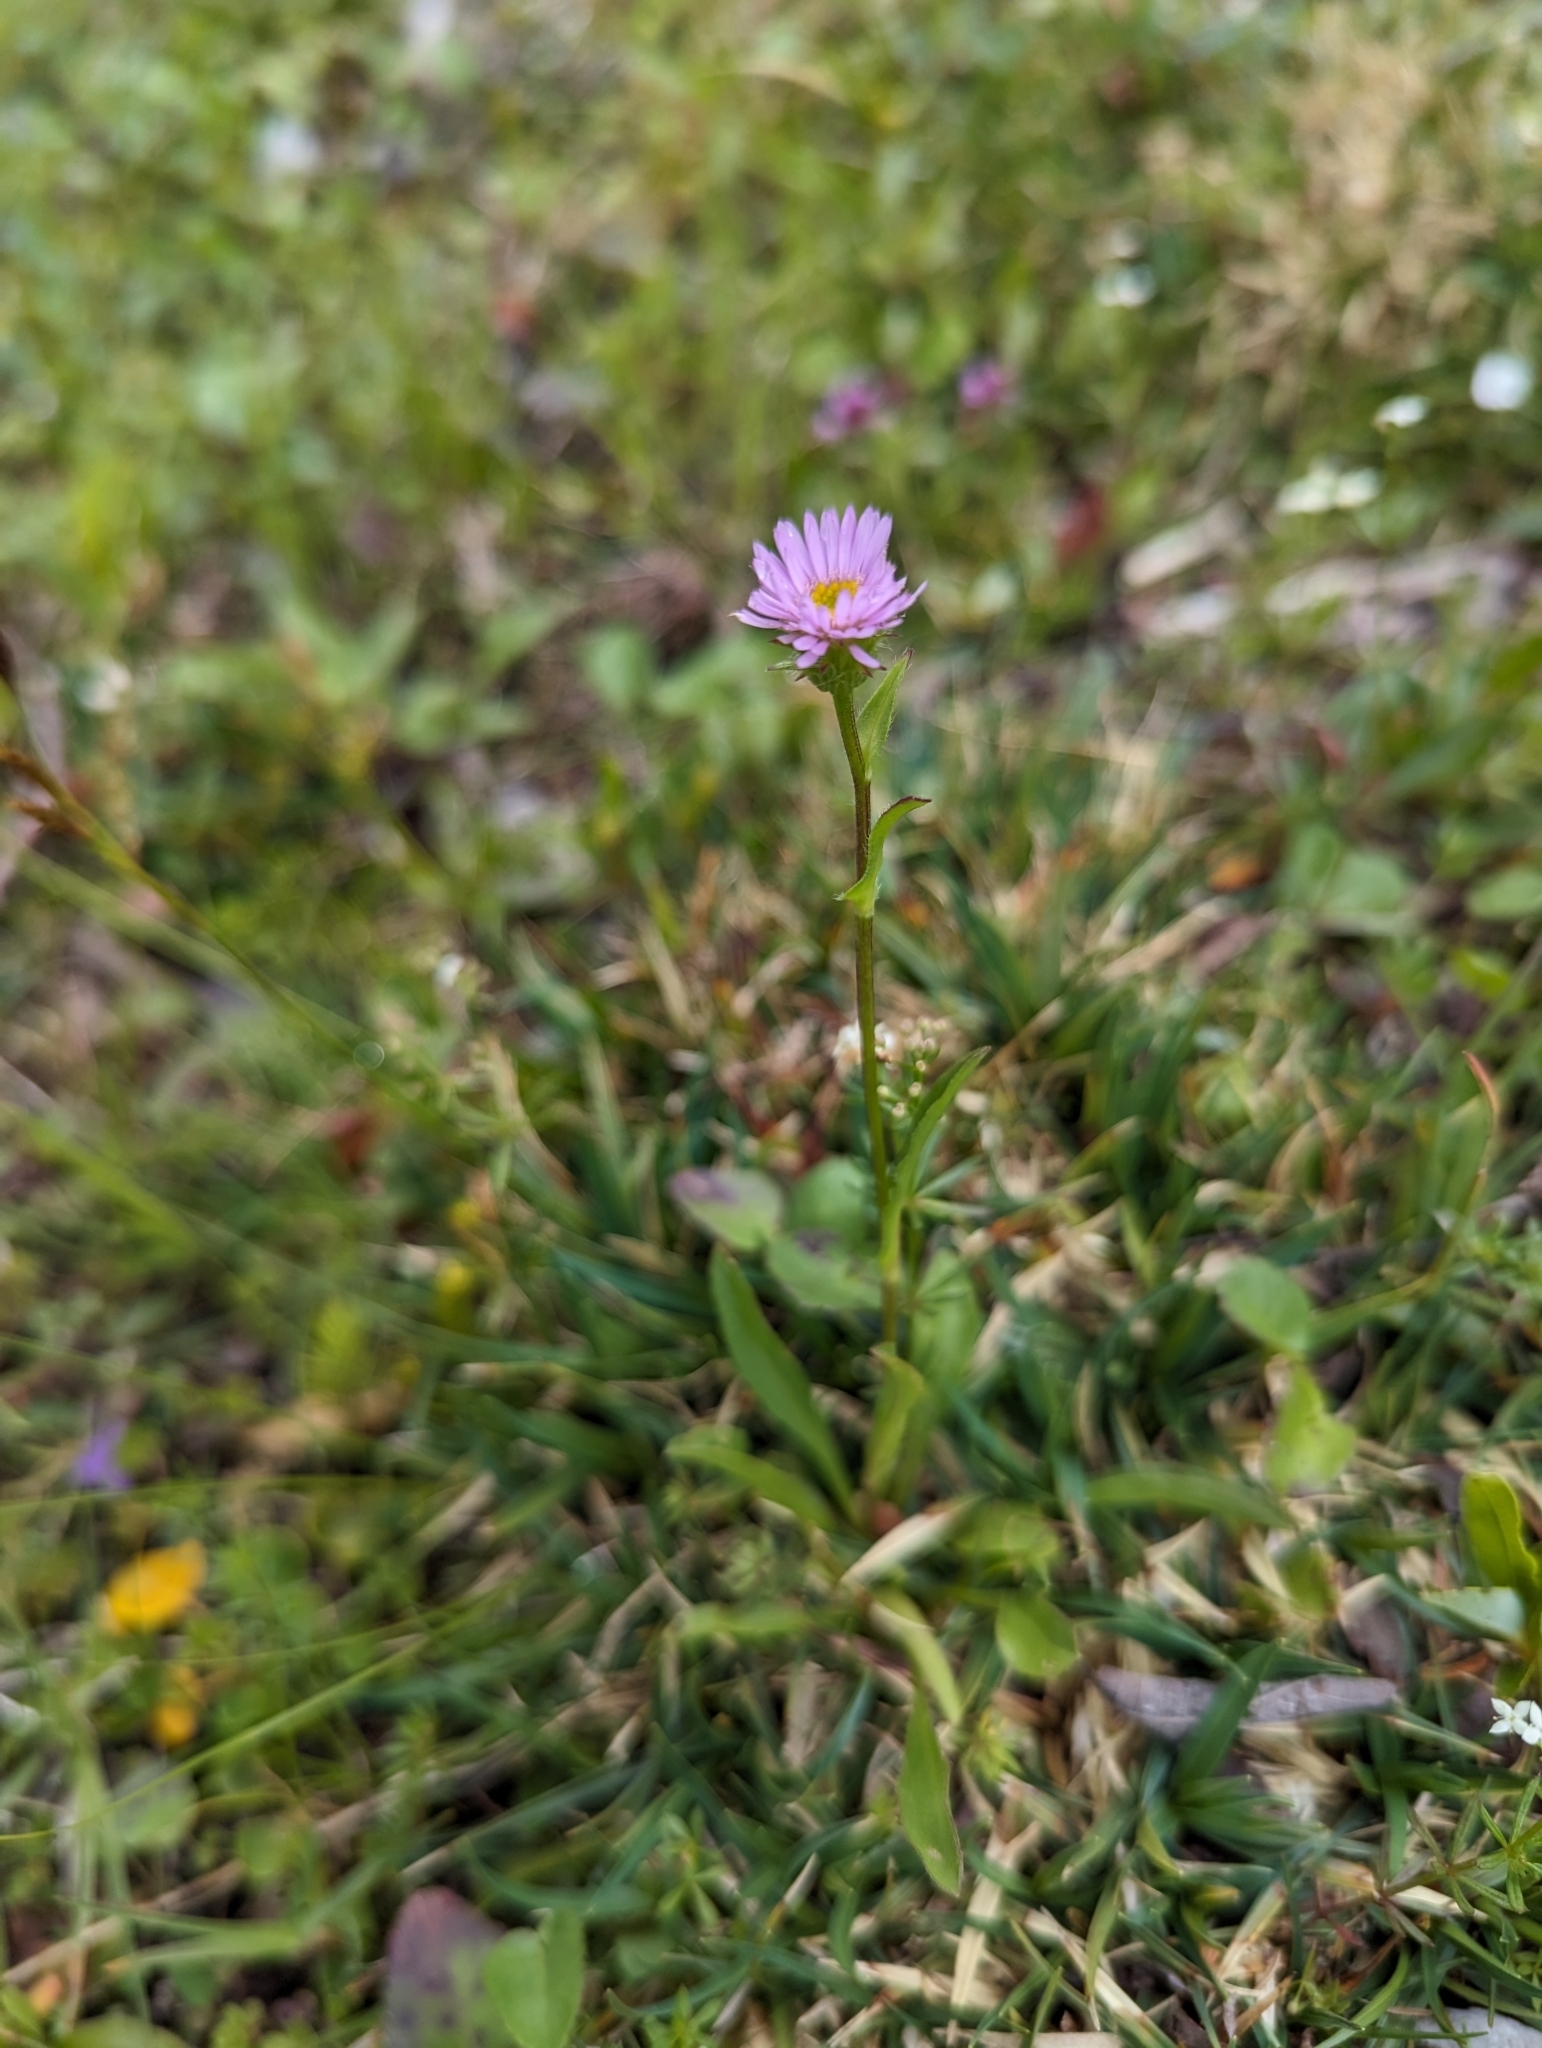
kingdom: Plantae
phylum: Tracheophyta
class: Magnoliopsida
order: Asterales
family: Asteraceae
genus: Erigeron
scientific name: Erigeron uniflorus
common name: Northern daisy
